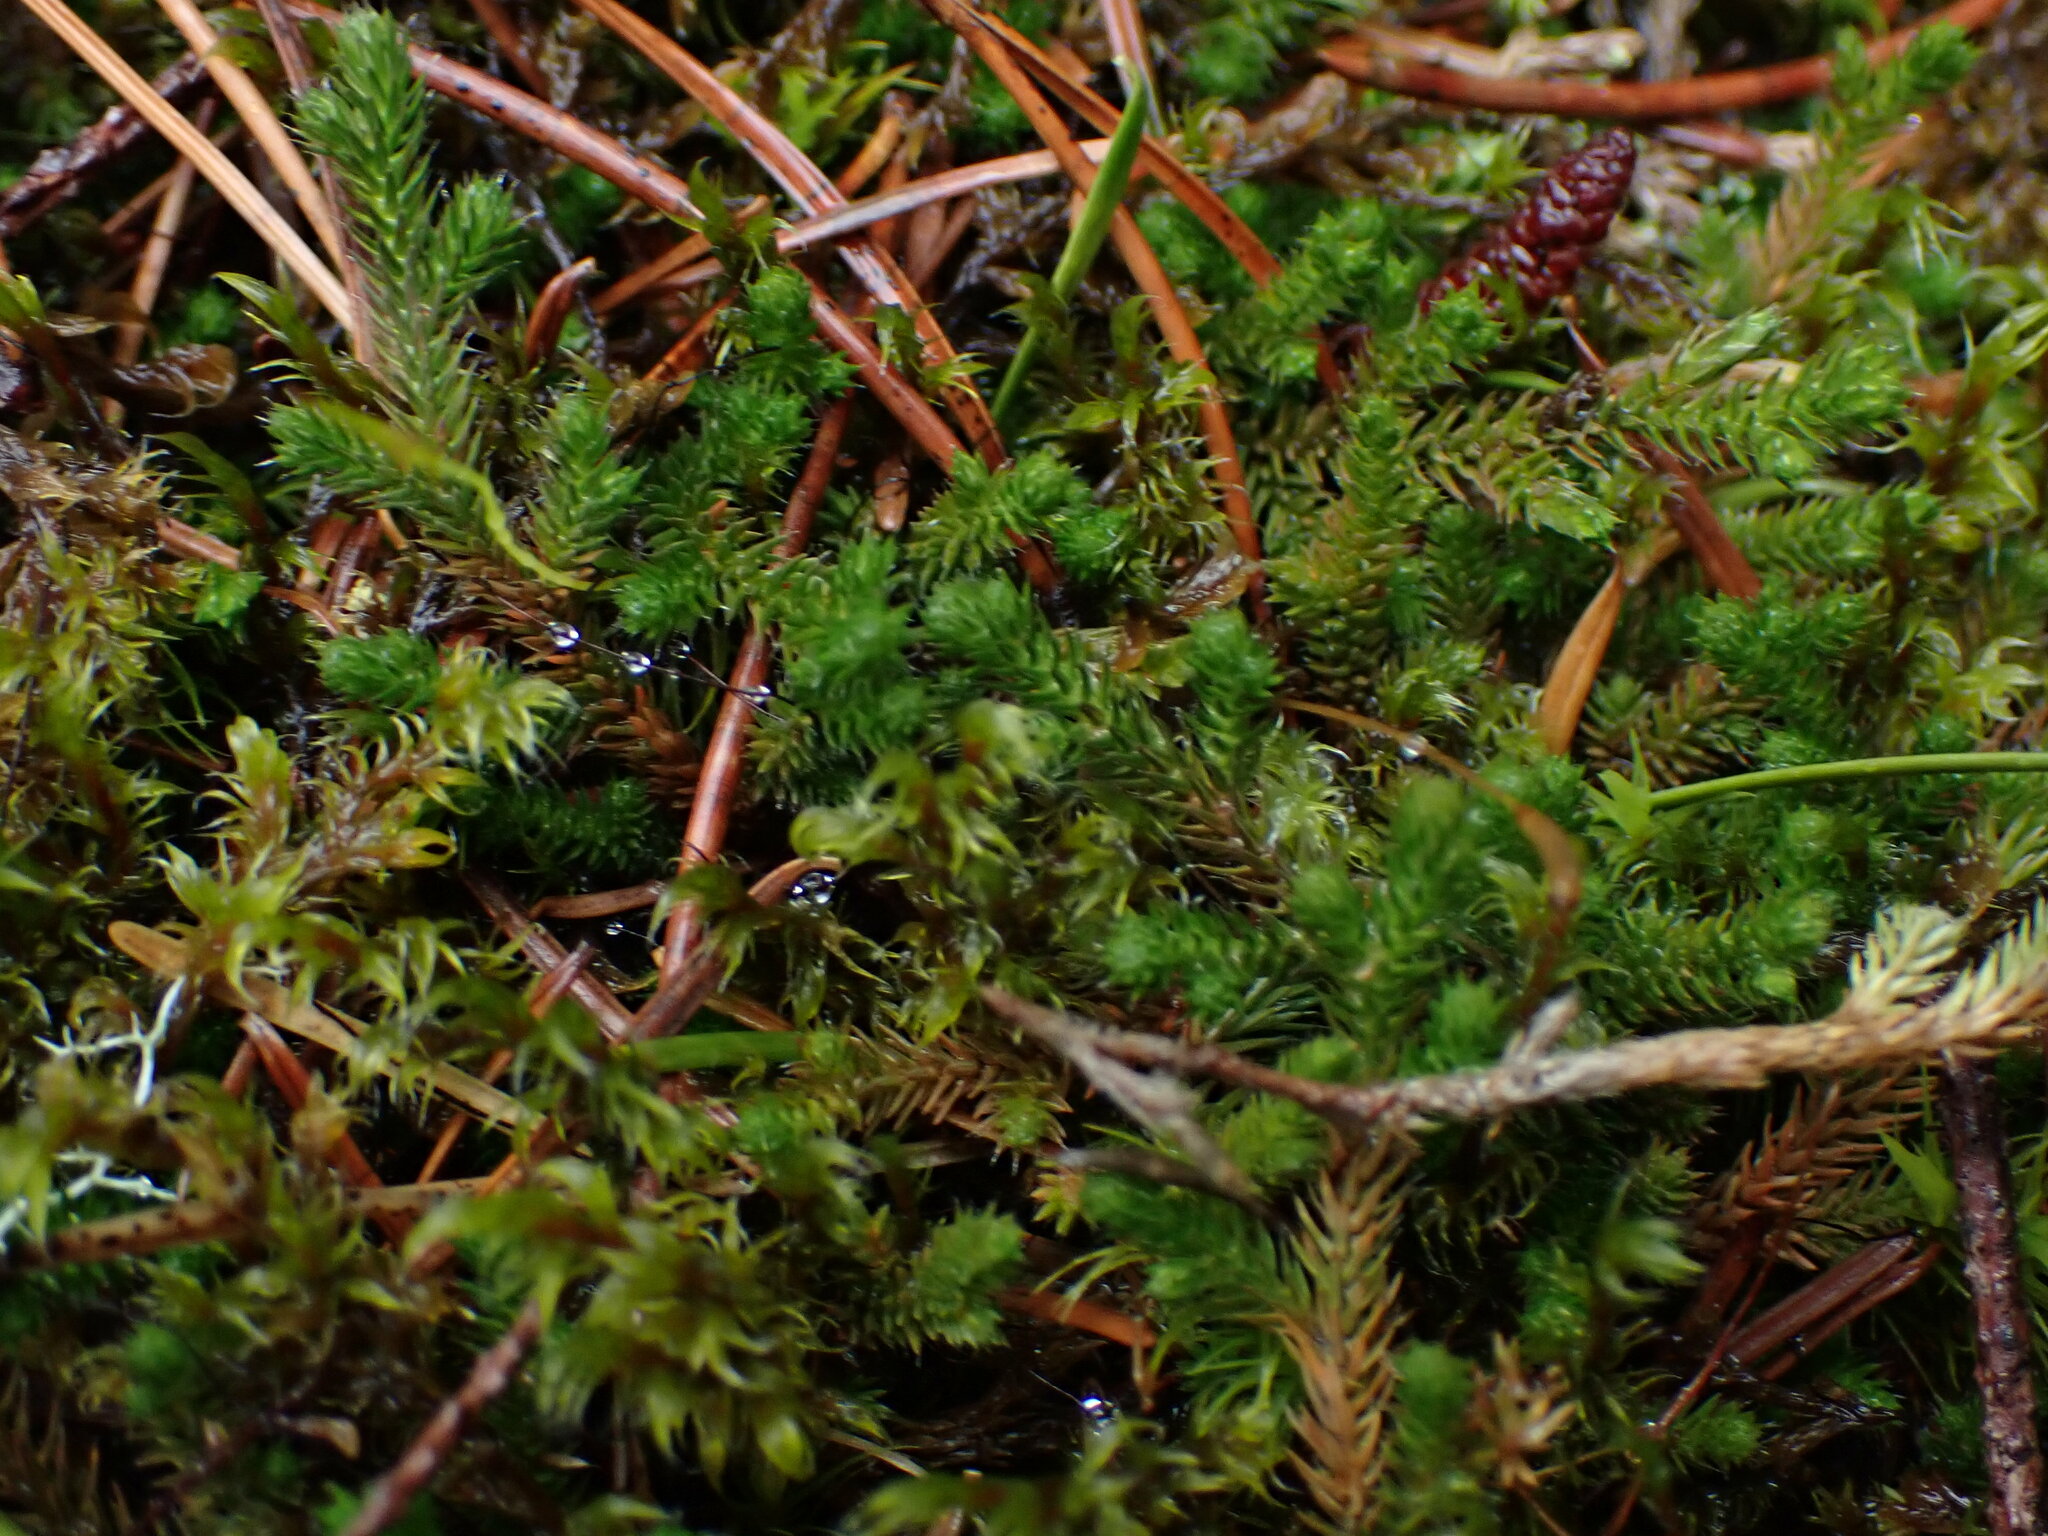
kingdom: Plantae
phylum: Tracheophyta
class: Lycopodiopsida
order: Selaginellales
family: Selaginellaceae
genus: Selaginella
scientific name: Selaginella wallacei
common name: Wallace's selaginella
